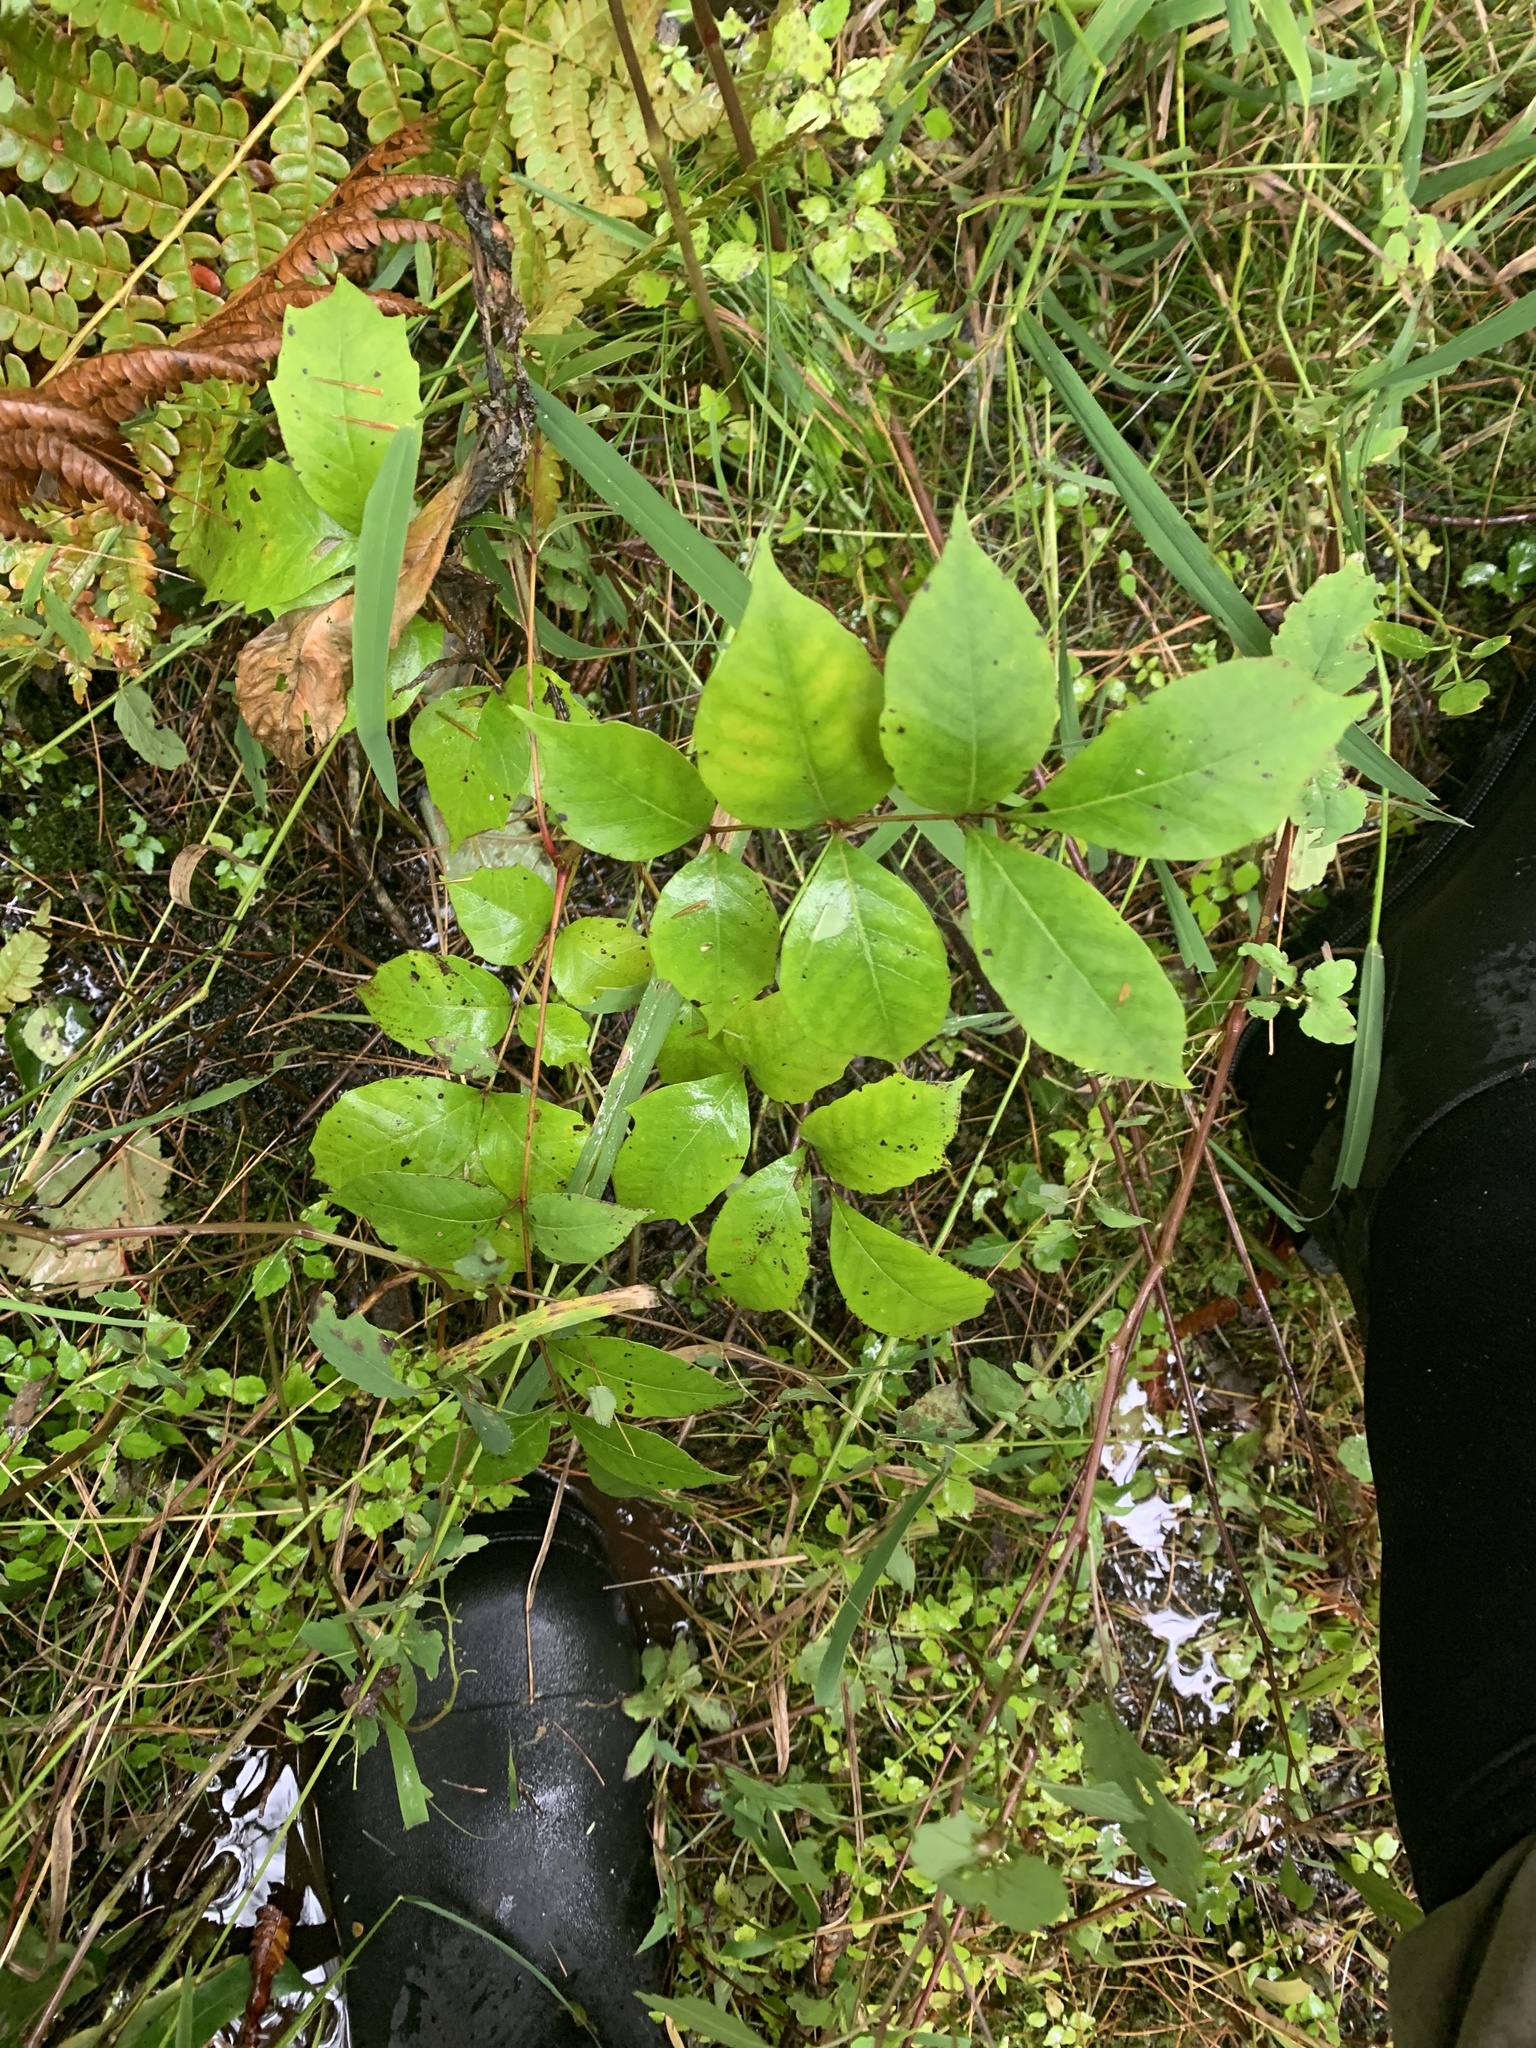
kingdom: Plantae
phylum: Tracheophyta
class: Magnoliopsida
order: Sapindales
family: Anacardiaceae
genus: Toxicodendron
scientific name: Toxicodendron vernix
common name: Poison sumac
